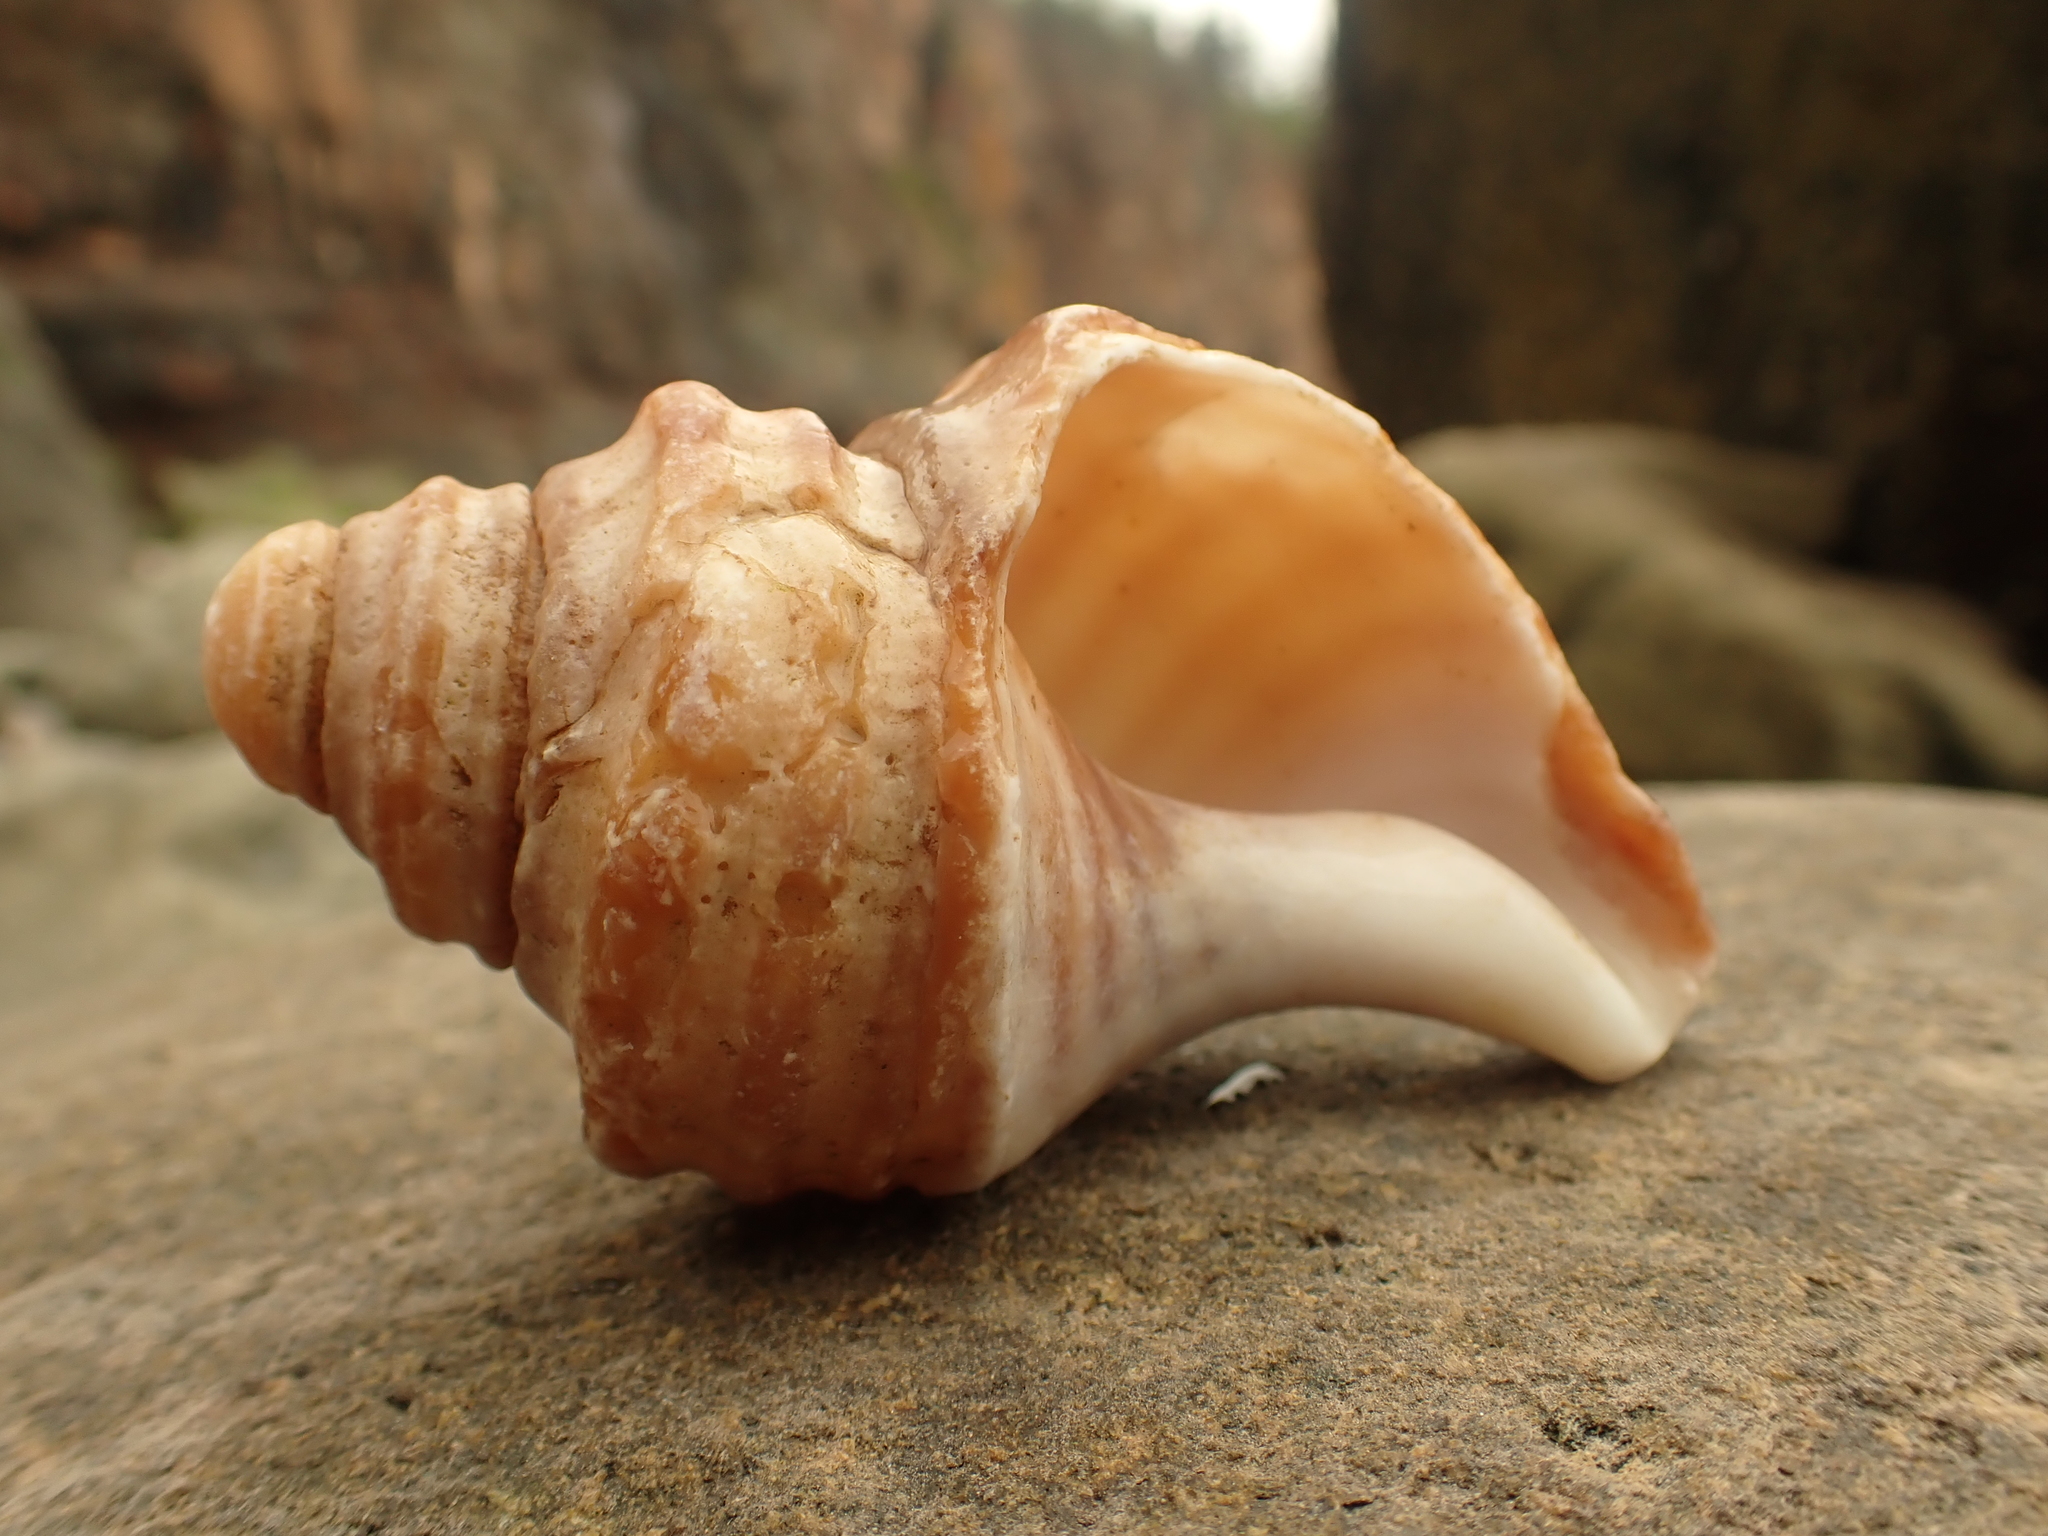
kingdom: Animalia
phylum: Mollusca
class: Gastropoda
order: Neogastropoda
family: Buccinidae
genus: Neptunea
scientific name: Neptunea decemcostata
